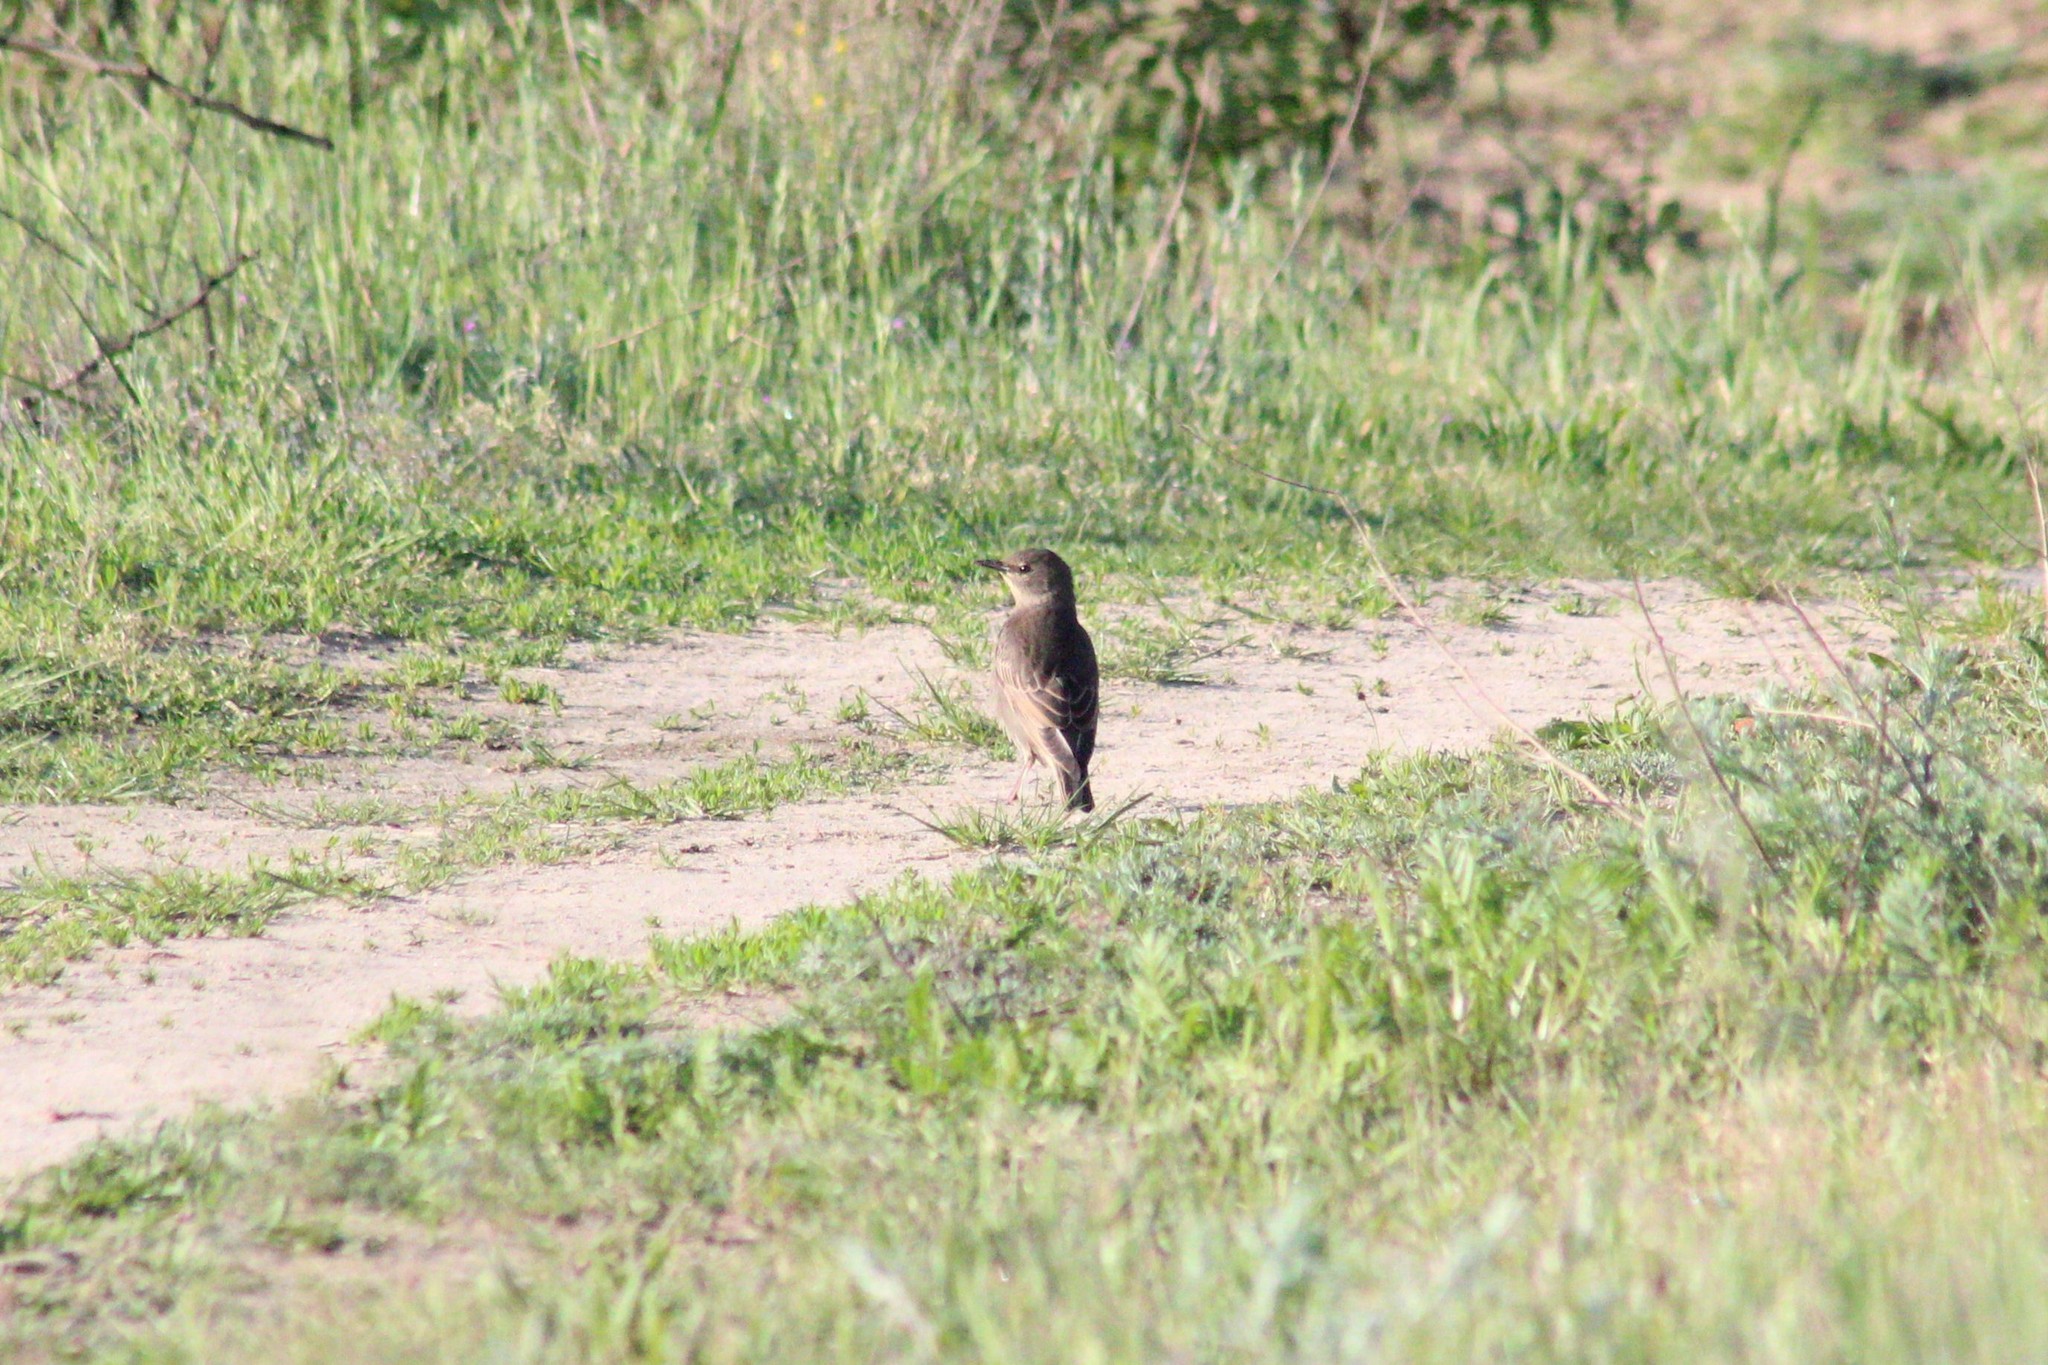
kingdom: Animalia
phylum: Chordata
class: Aves
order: Passeriformes
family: Sturnidae
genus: Sturnus
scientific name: Sturnus vulgaris
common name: Common starling
